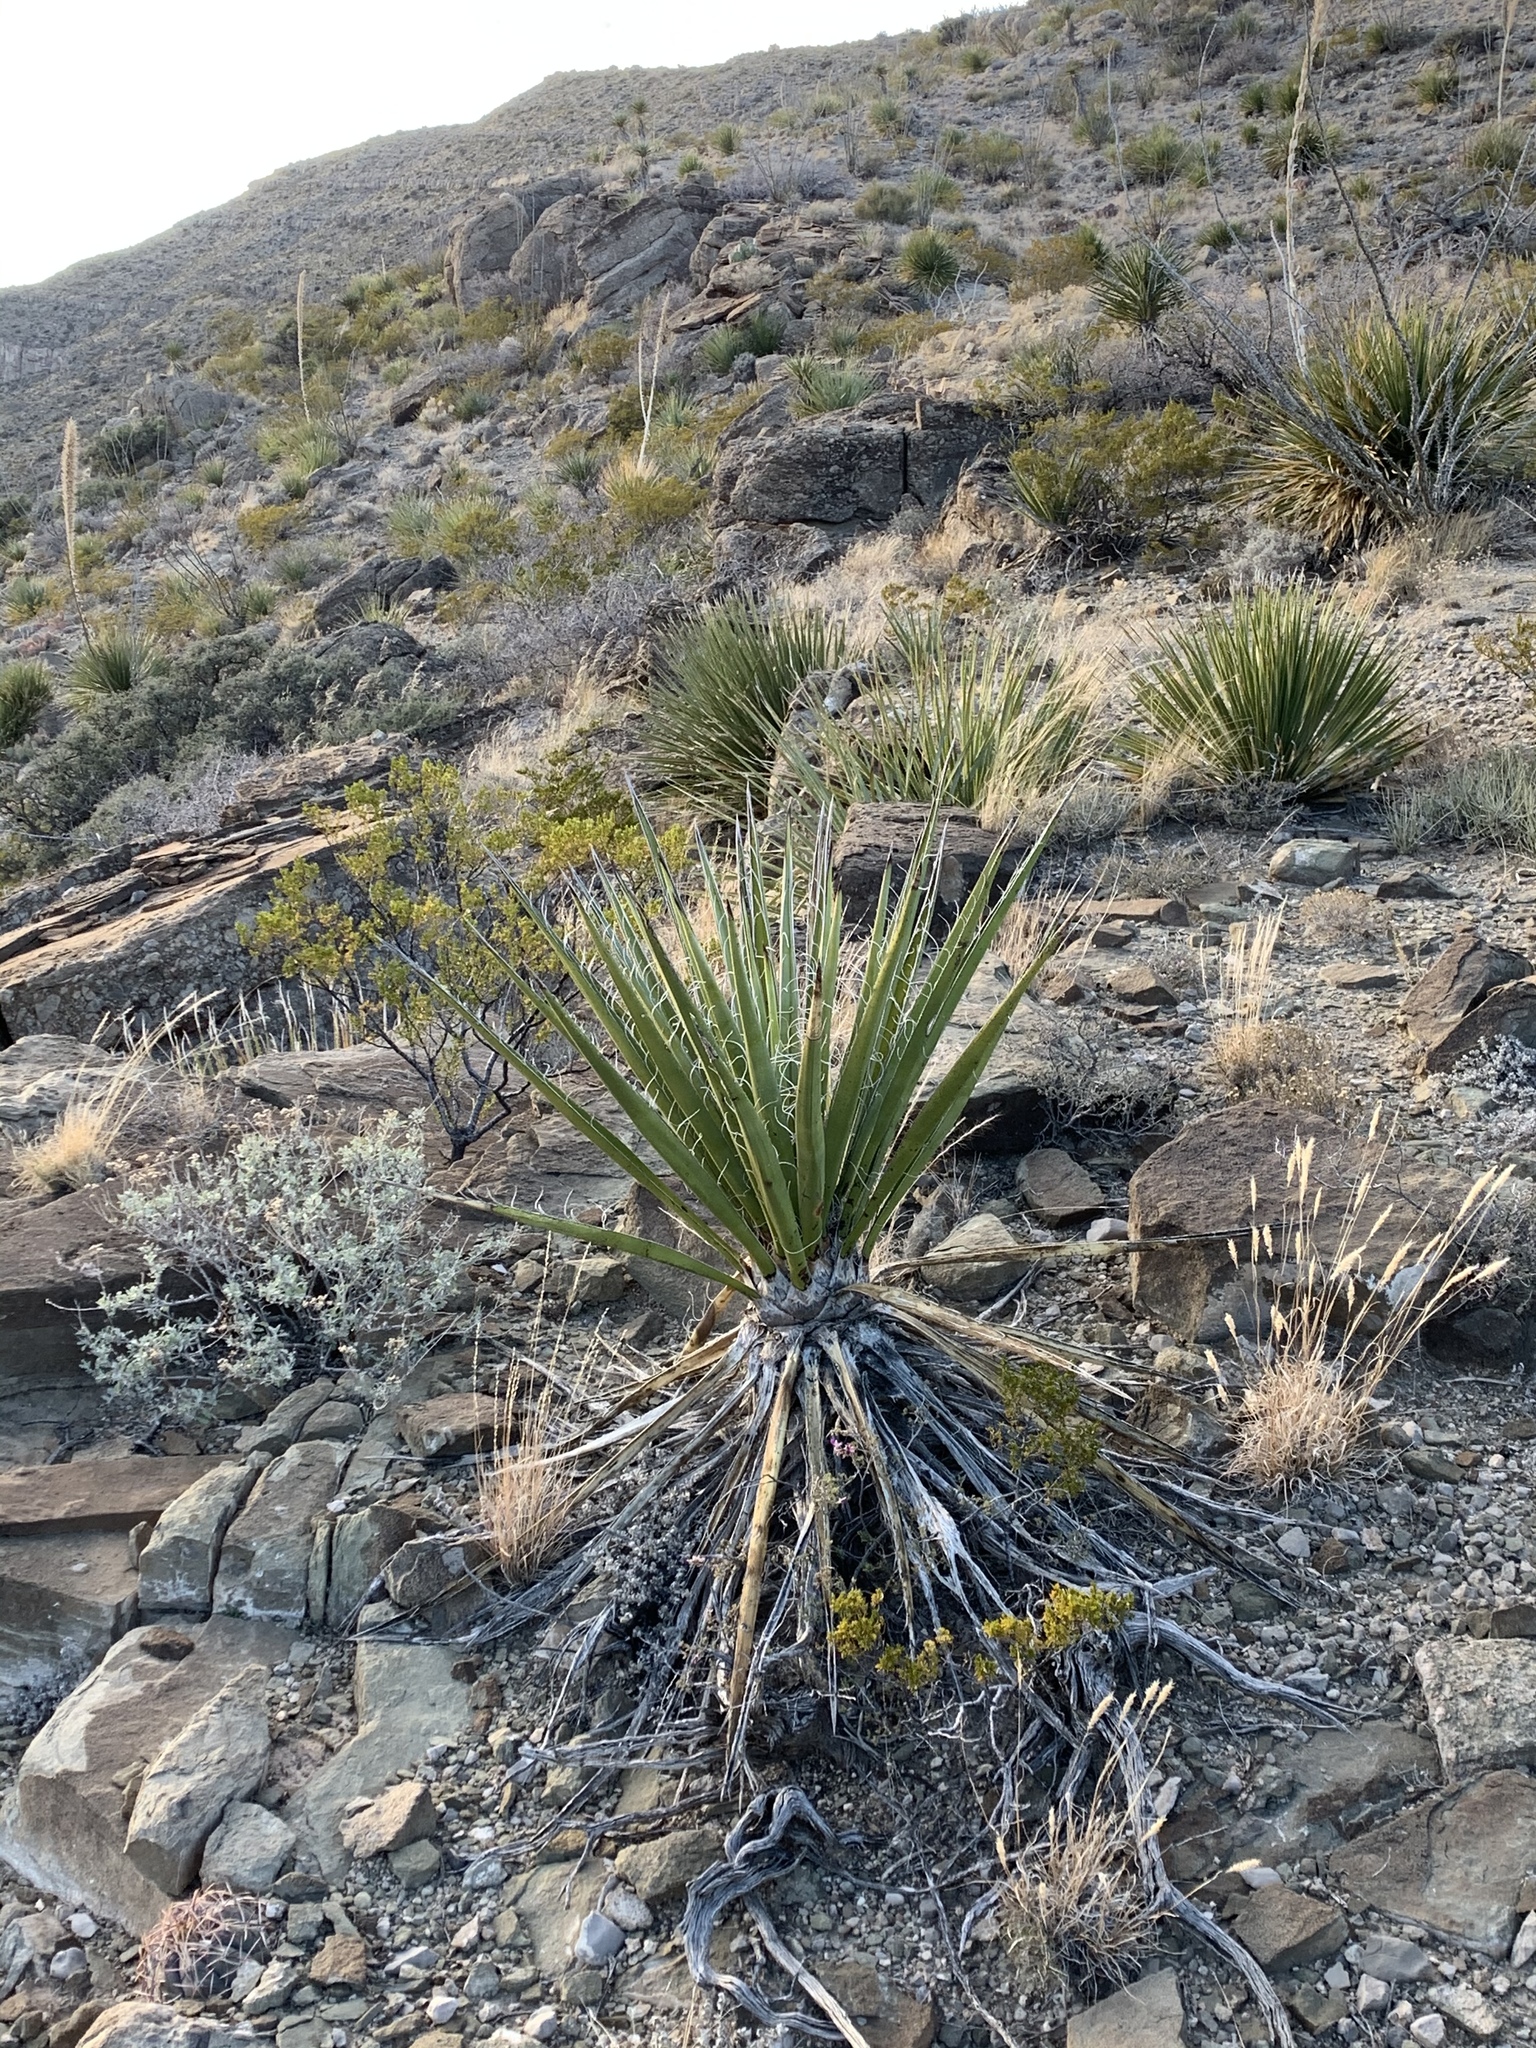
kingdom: Plantae
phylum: Tracheophyta
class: Liliopsida
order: Asparagales
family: Asparagaceae
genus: Yucca
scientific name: Yucca treculiana
